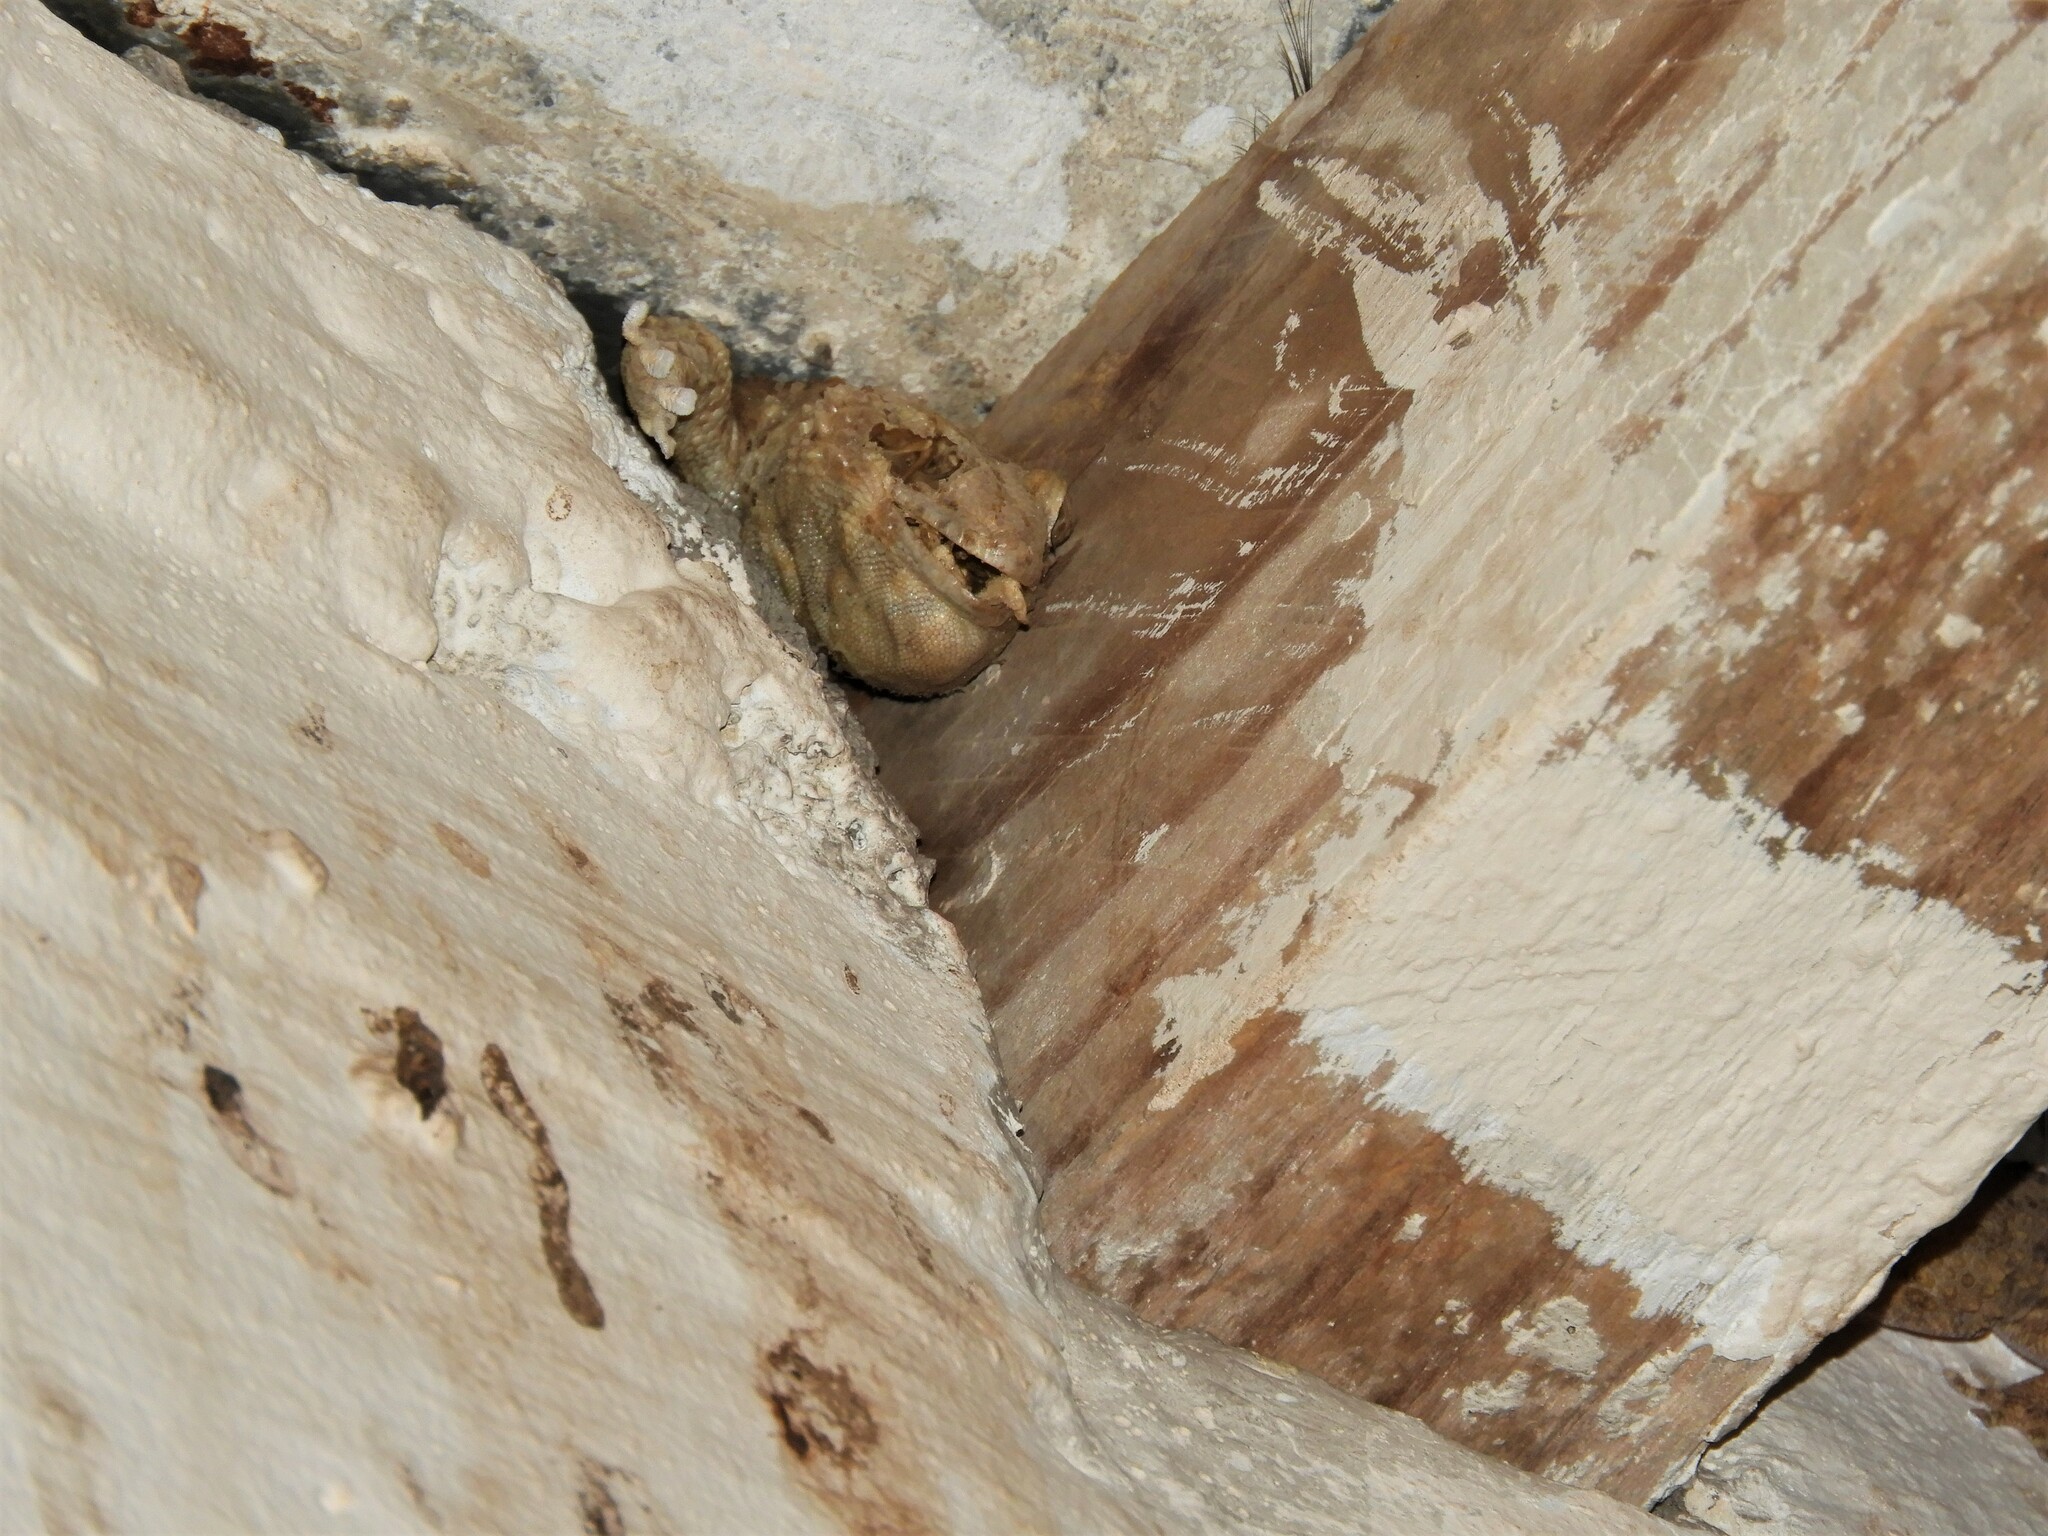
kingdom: Animalia
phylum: Chordata
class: Squamata
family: Gekkonidae
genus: Chondrodactylus
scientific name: Chondrodactylus laevigatus
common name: Fischer's thick-toed gecko
